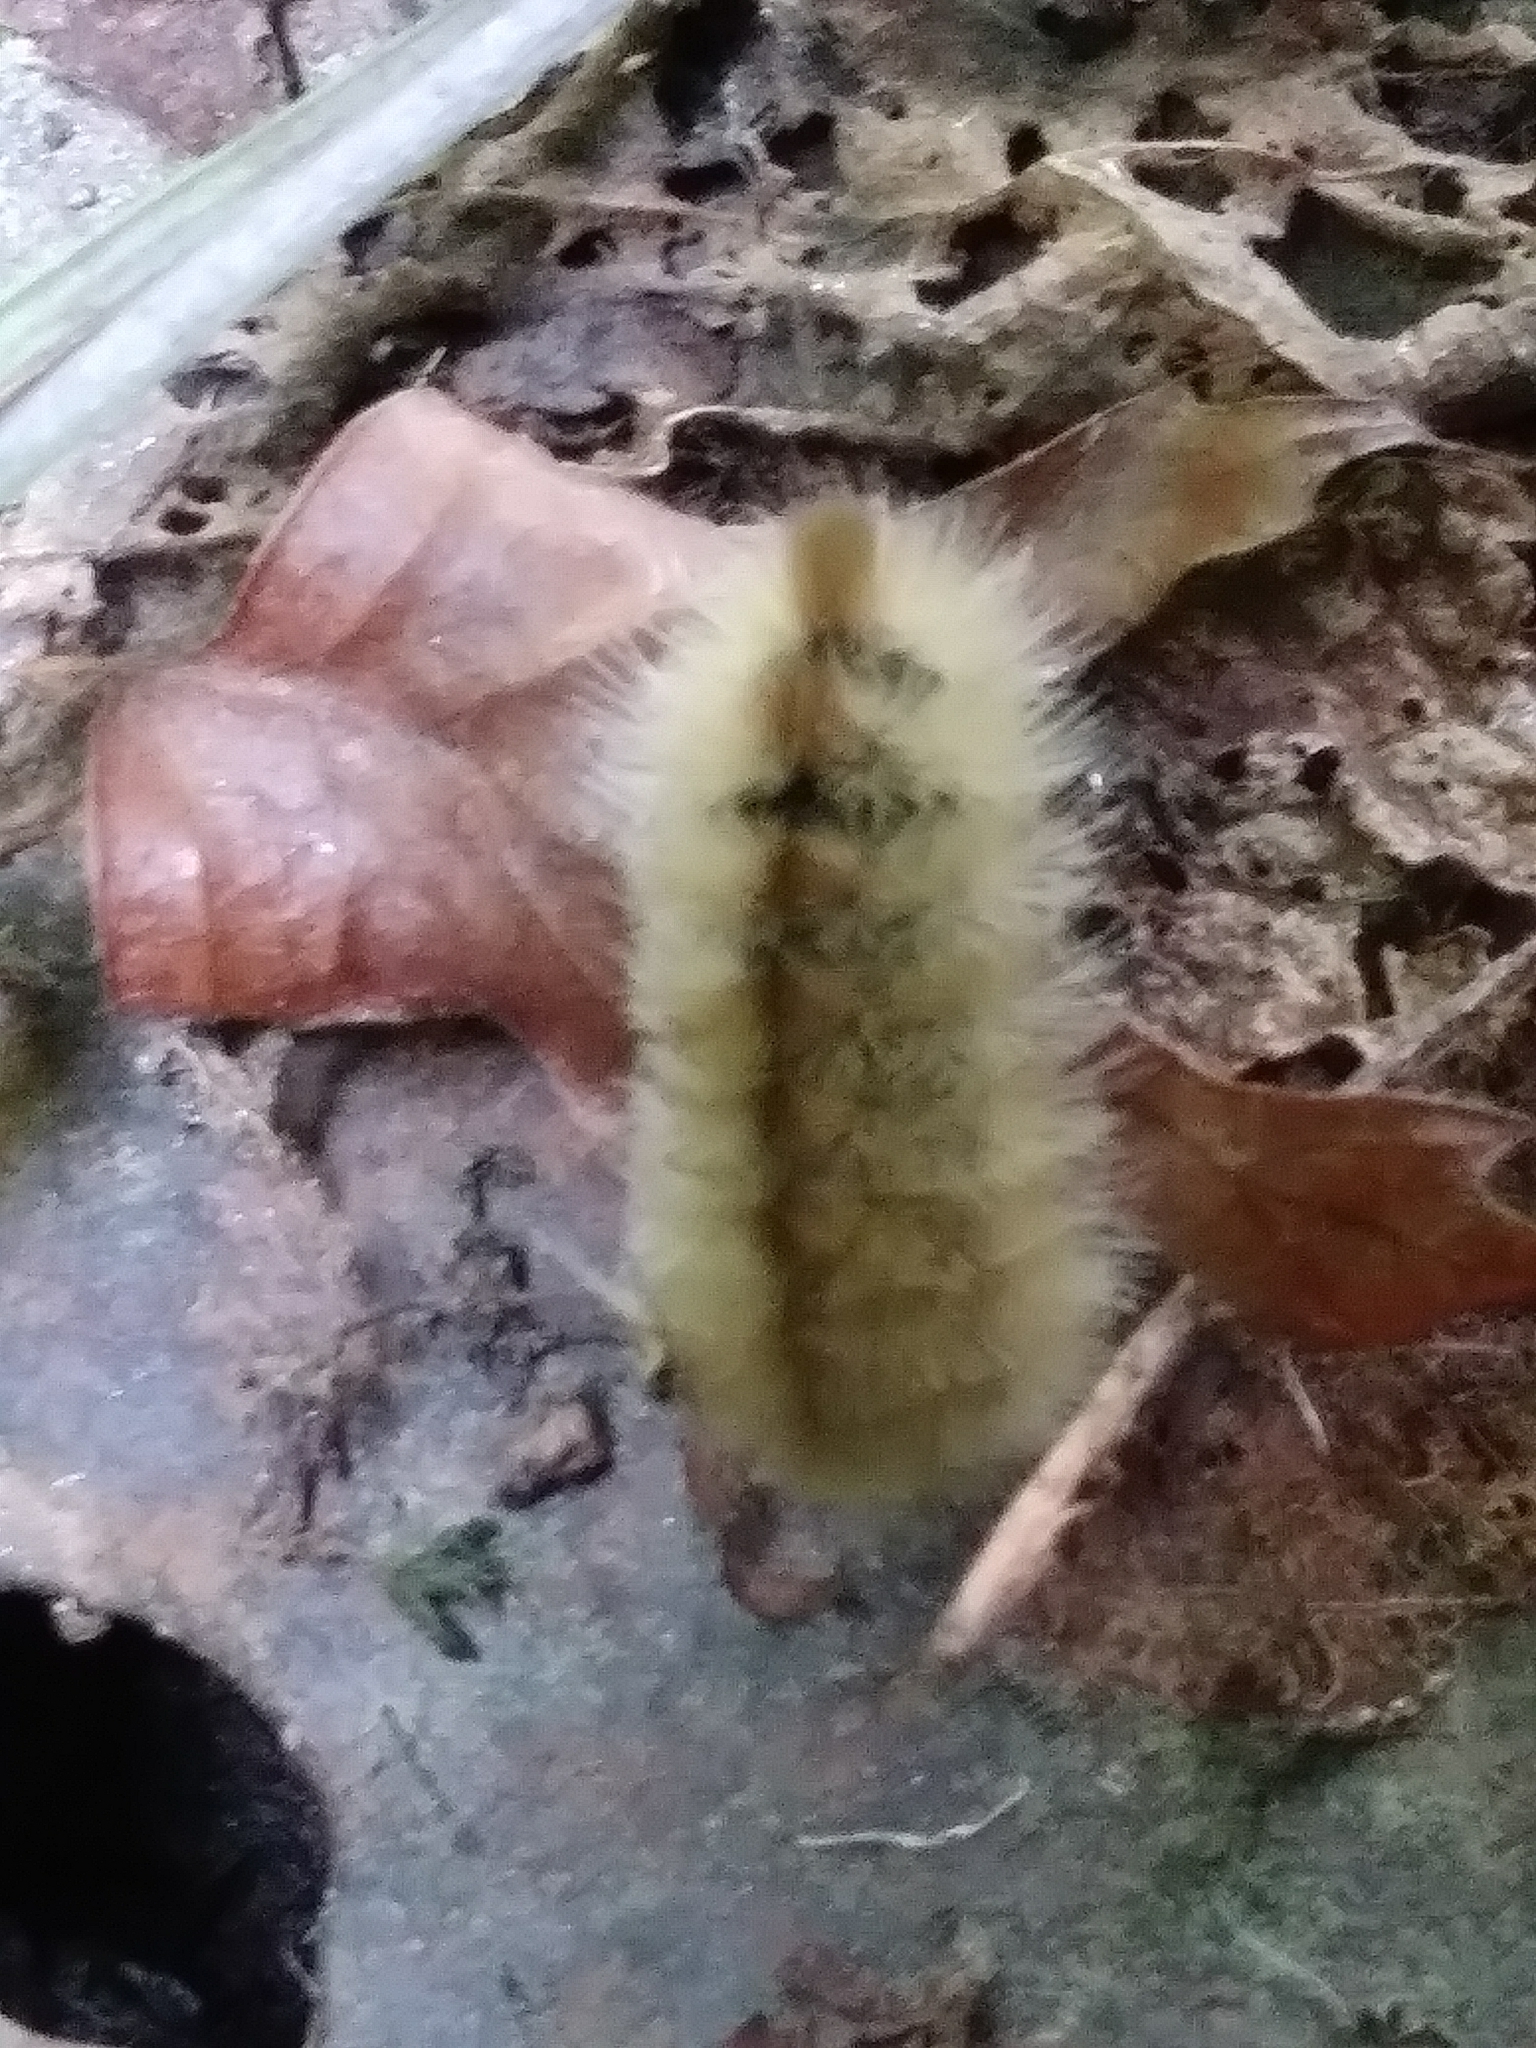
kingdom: Animalia
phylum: Arthropoda
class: Insecta
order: Lepidoptera
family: Erebidae
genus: Halysidota
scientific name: Halysidota tessellaris
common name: Banded tussock moth
